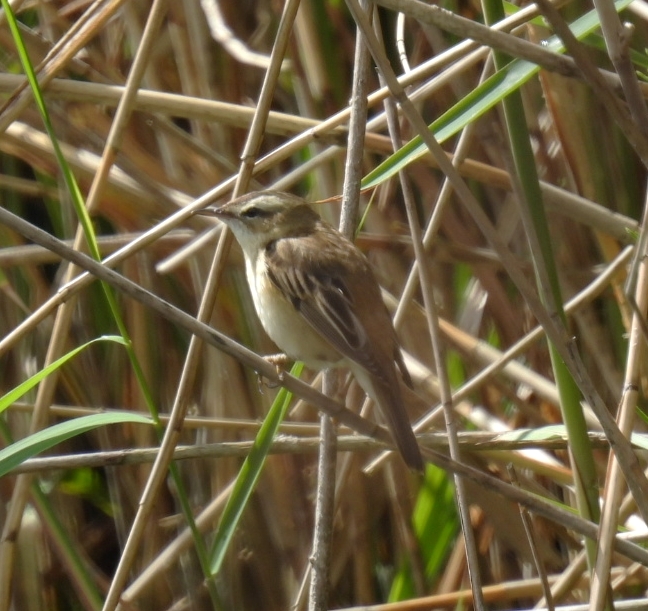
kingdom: Animalia
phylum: Chordata
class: Aves
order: Passeriformes
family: Acrocephalidae
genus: Acrocephalus
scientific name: Acrocephalus schoenobaenus
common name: Sedge warbler
